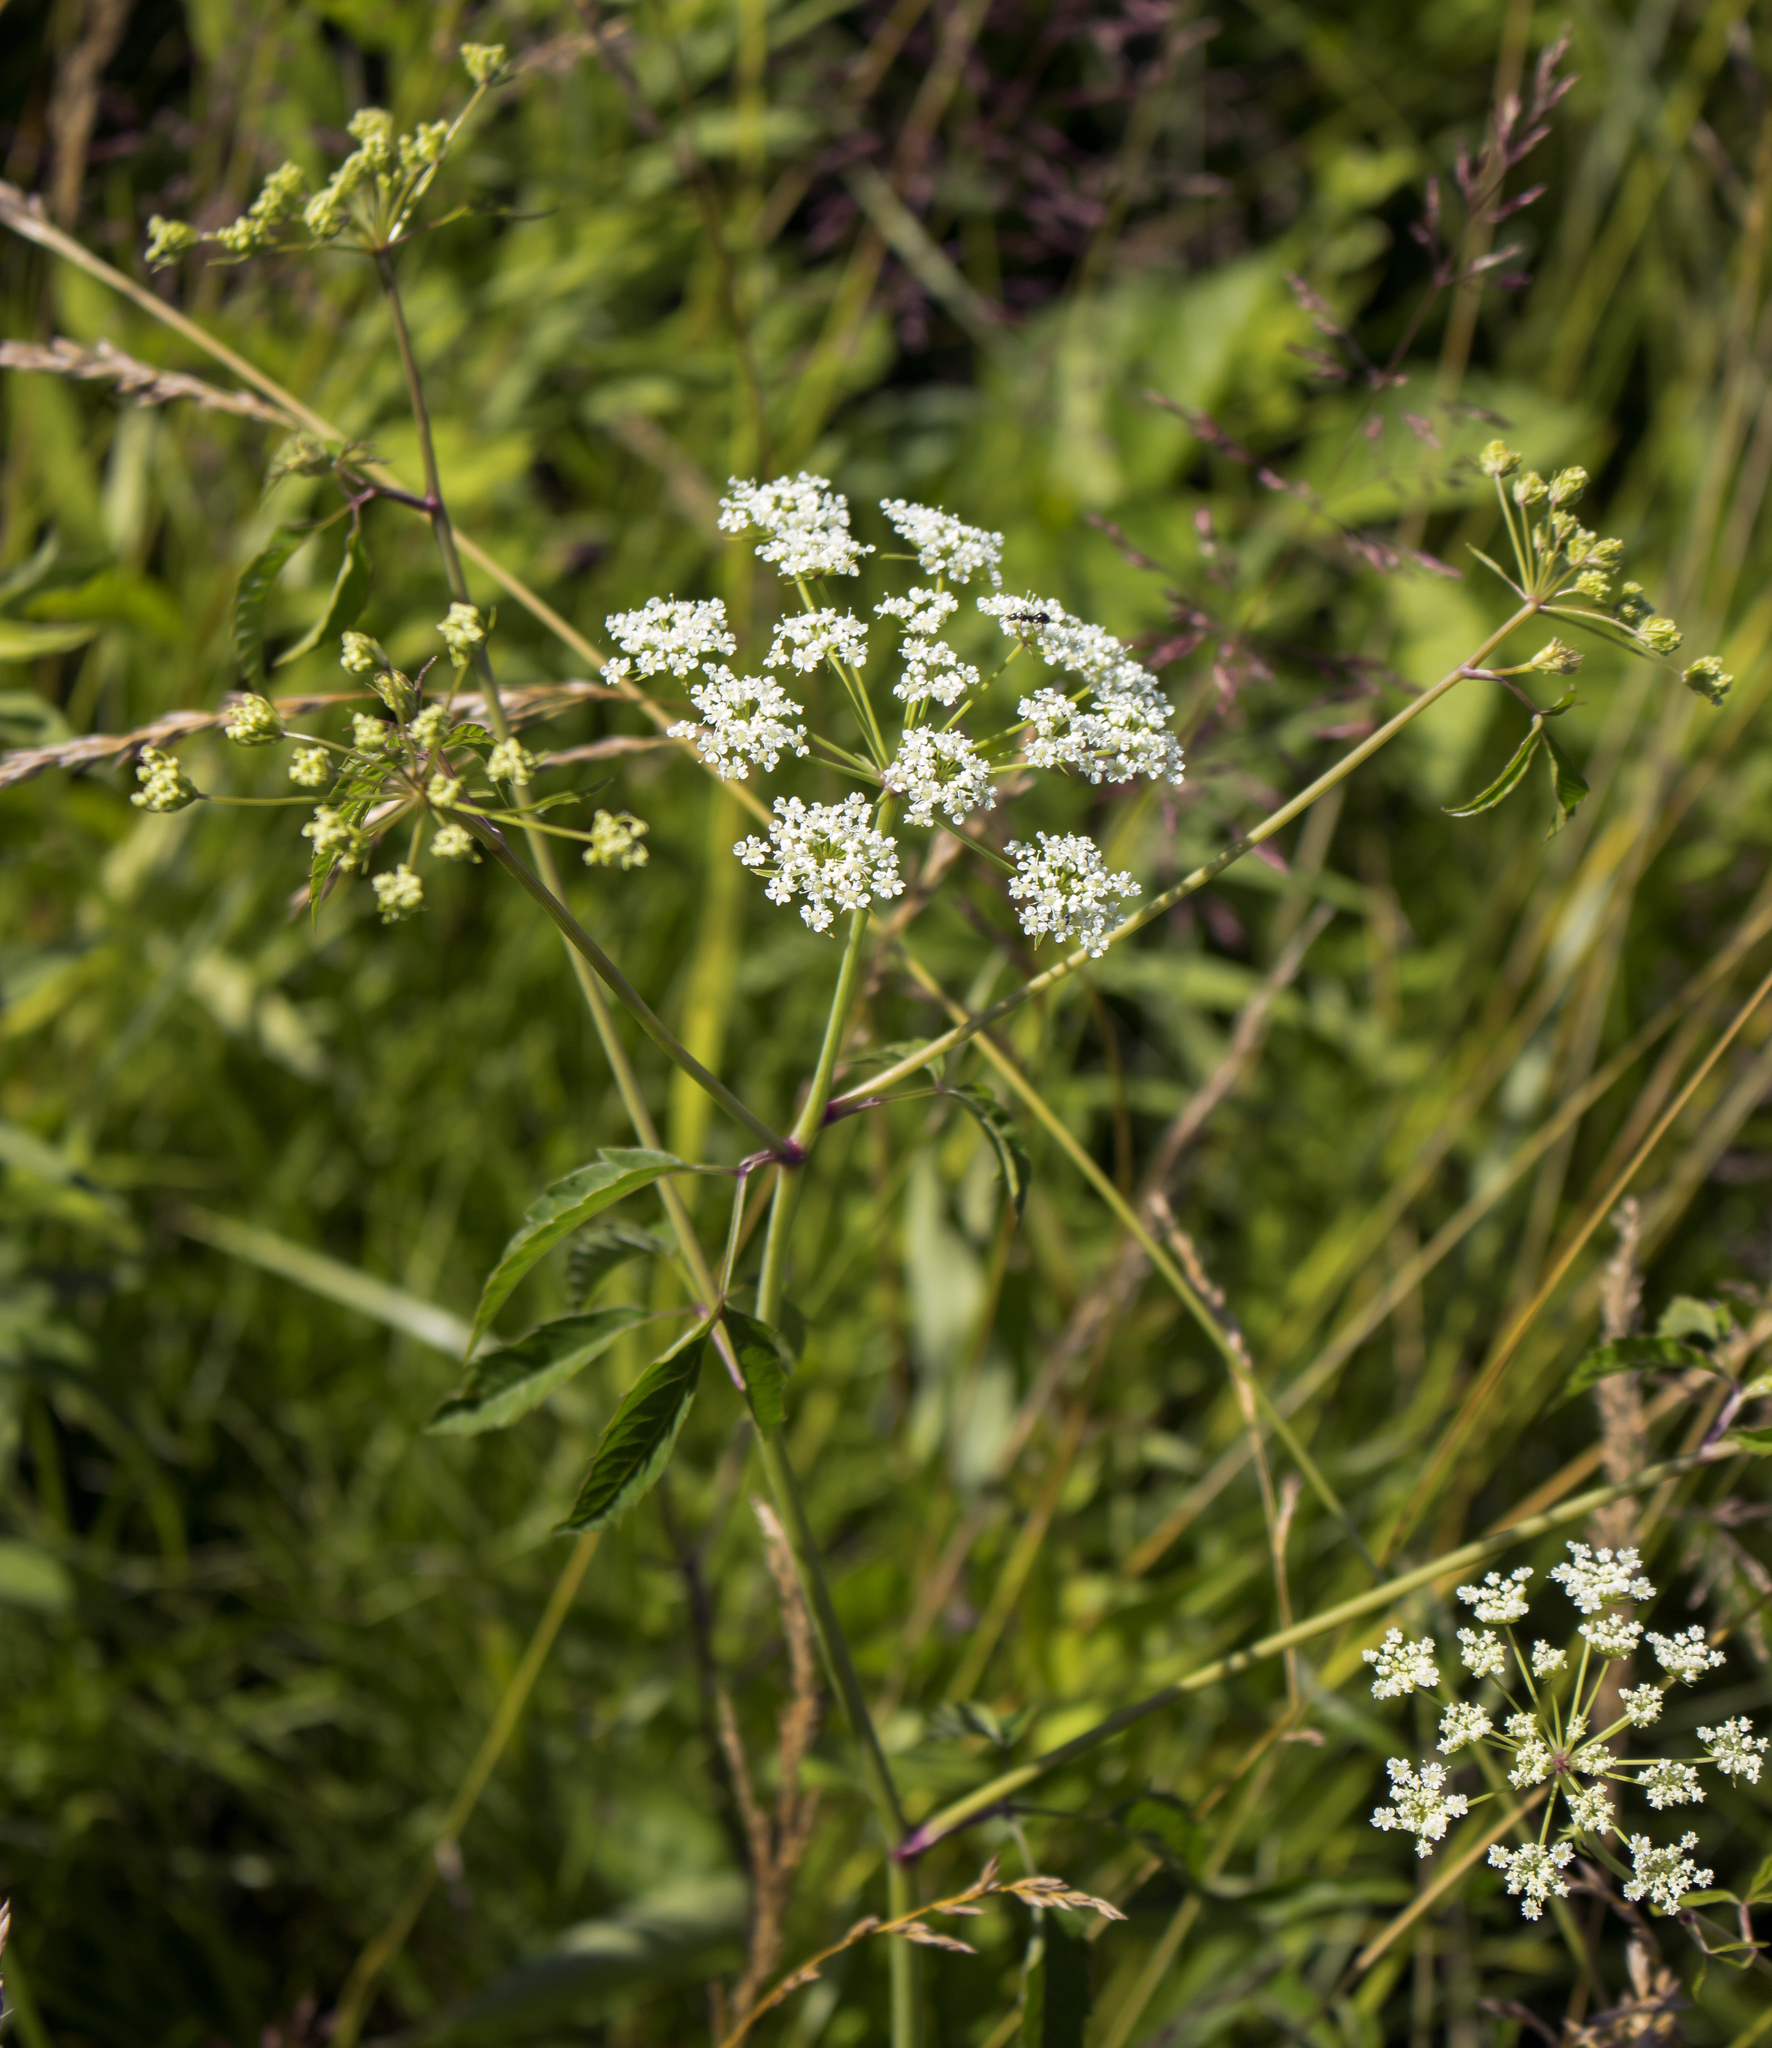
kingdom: Plantae
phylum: Tracheophyta
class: Magnoliopsida
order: Apiales
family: Apiaceae
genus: Cicuta
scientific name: Cicuta maculata
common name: Spotted cowbane
